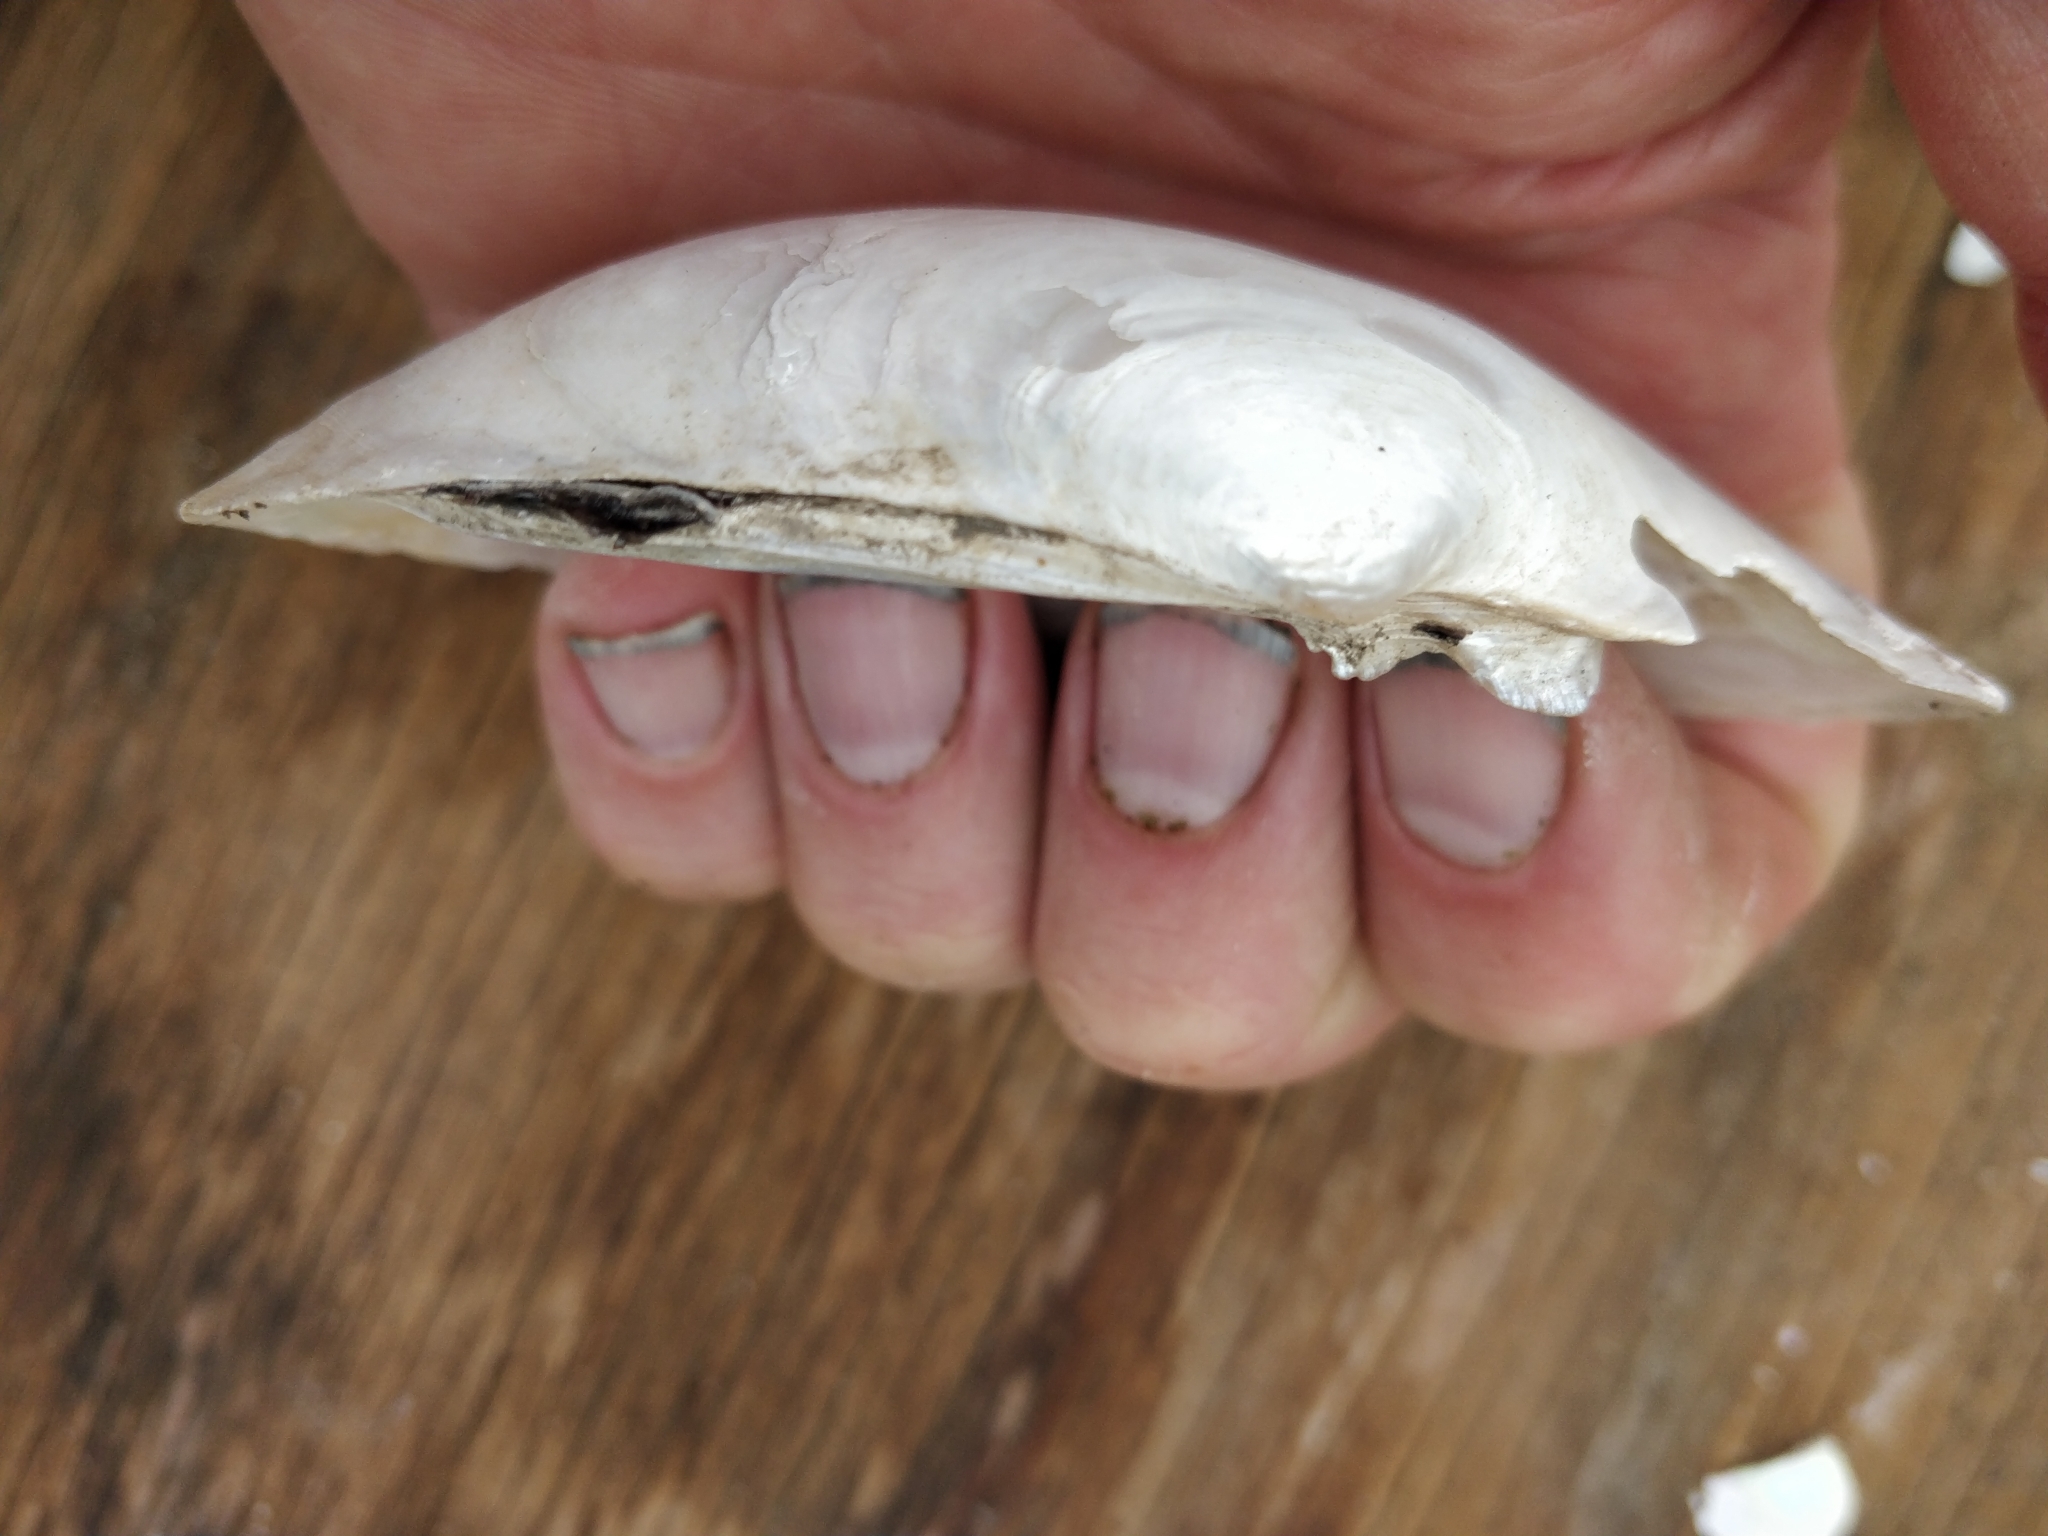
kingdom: Animalia
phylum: Mollusca
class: Bivalvia
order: Unionida
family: Unionidae
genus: Lampsilis
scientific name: Lampsilis siliquoidea
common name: Fatmucket
